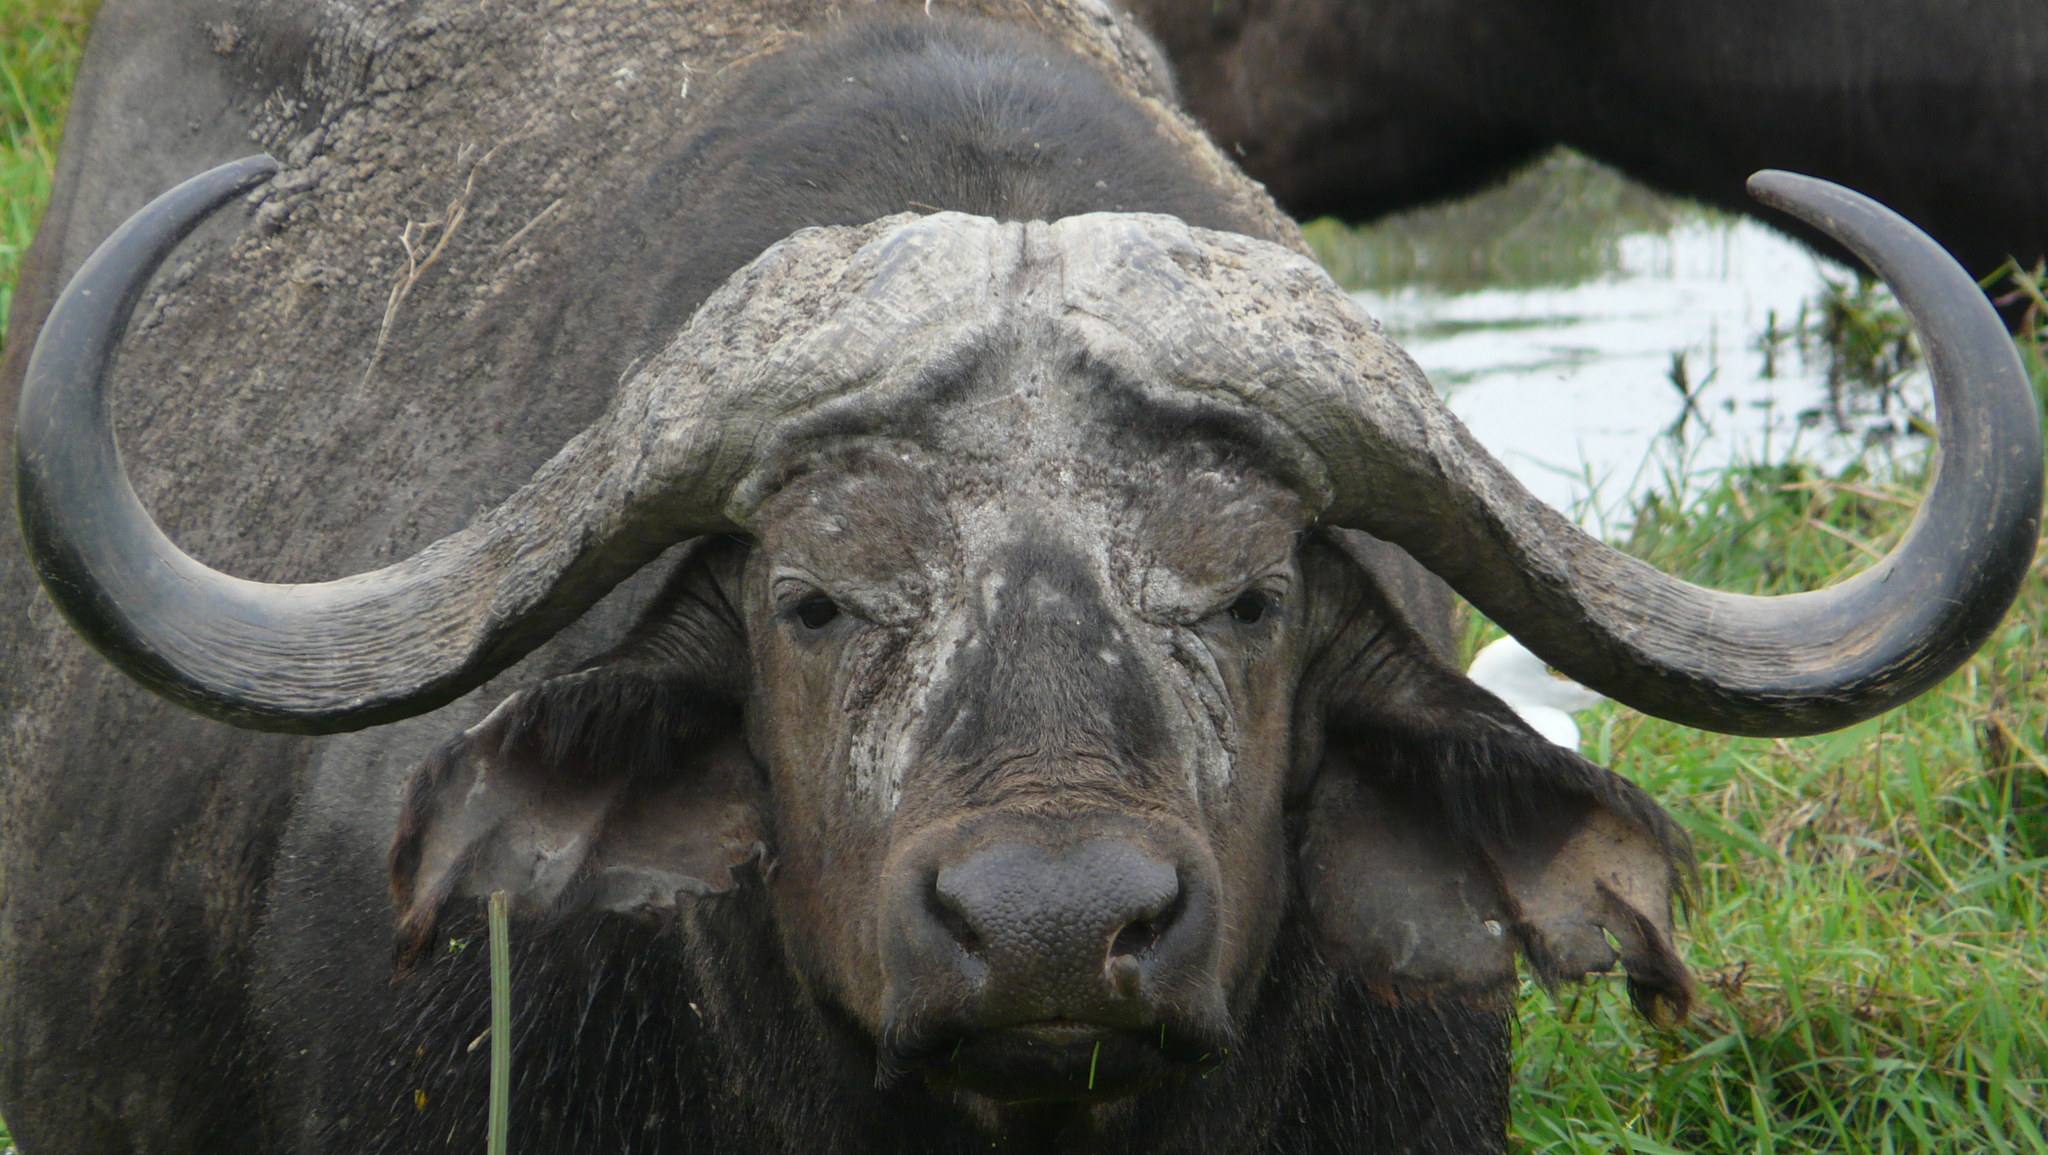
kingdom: Animalia
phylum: Chordata
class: Mammalia
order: Artiodactyla
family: Bovidae
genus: Syncerus
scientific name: Syncerus caffer
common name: African buffalo
